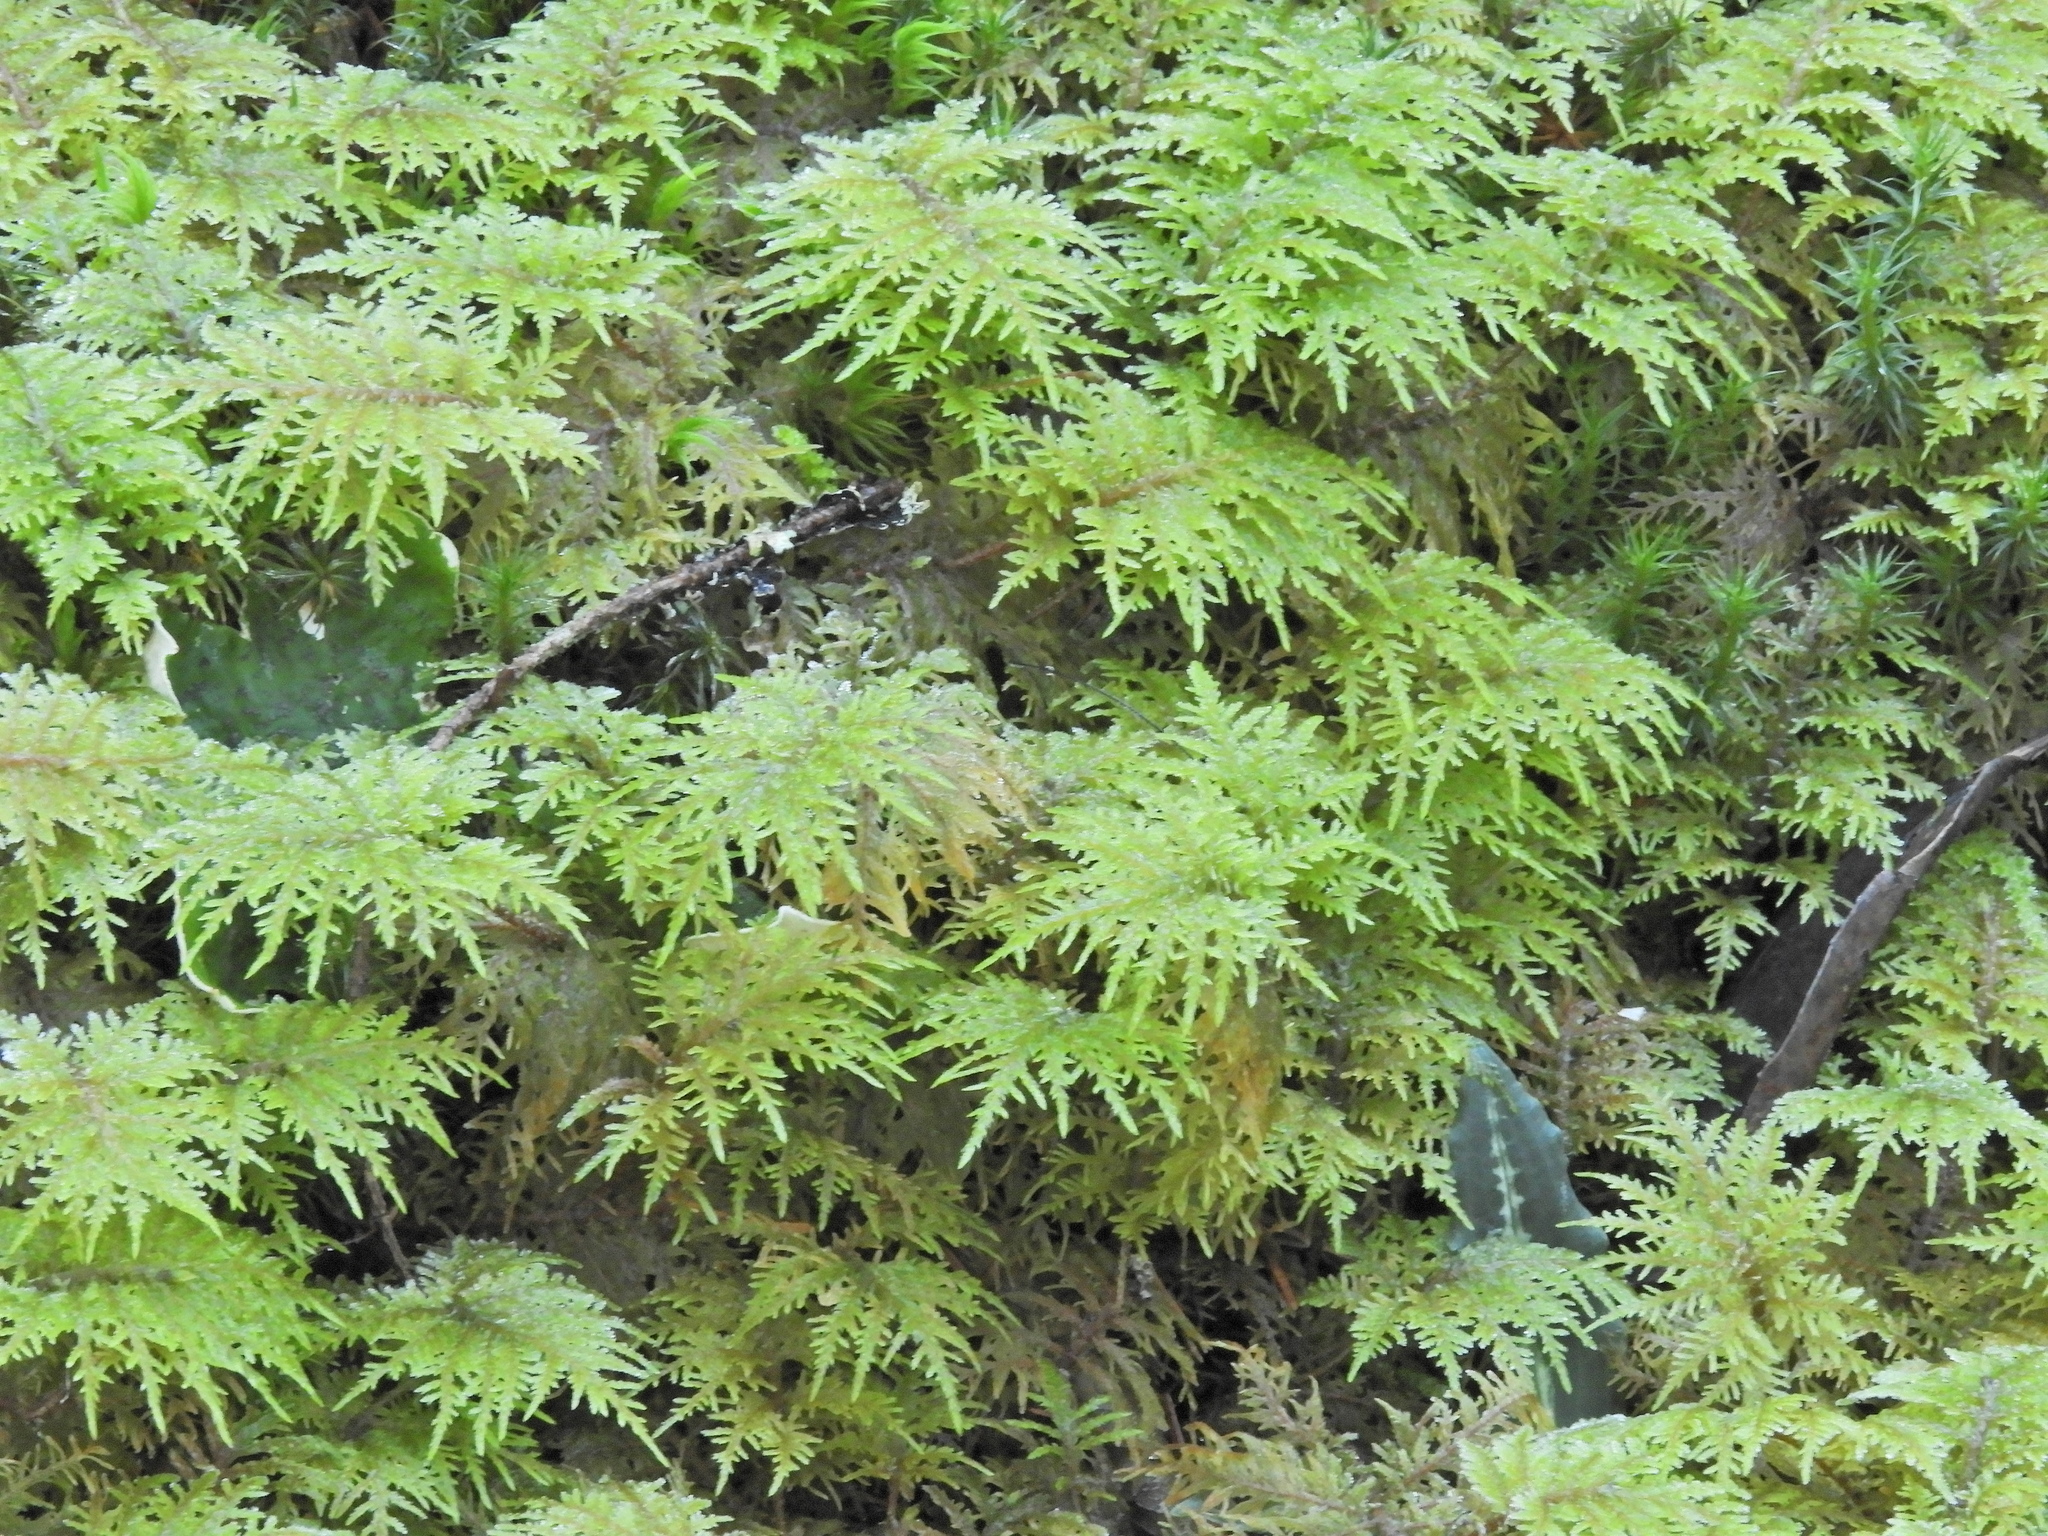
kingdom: Plantae
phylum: Bryophyta
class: Bryopsida
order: Hypnales
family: Hylocomiaceae
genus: Hylocomium
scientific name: Hylocomium splendens
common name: Stairstep moss
